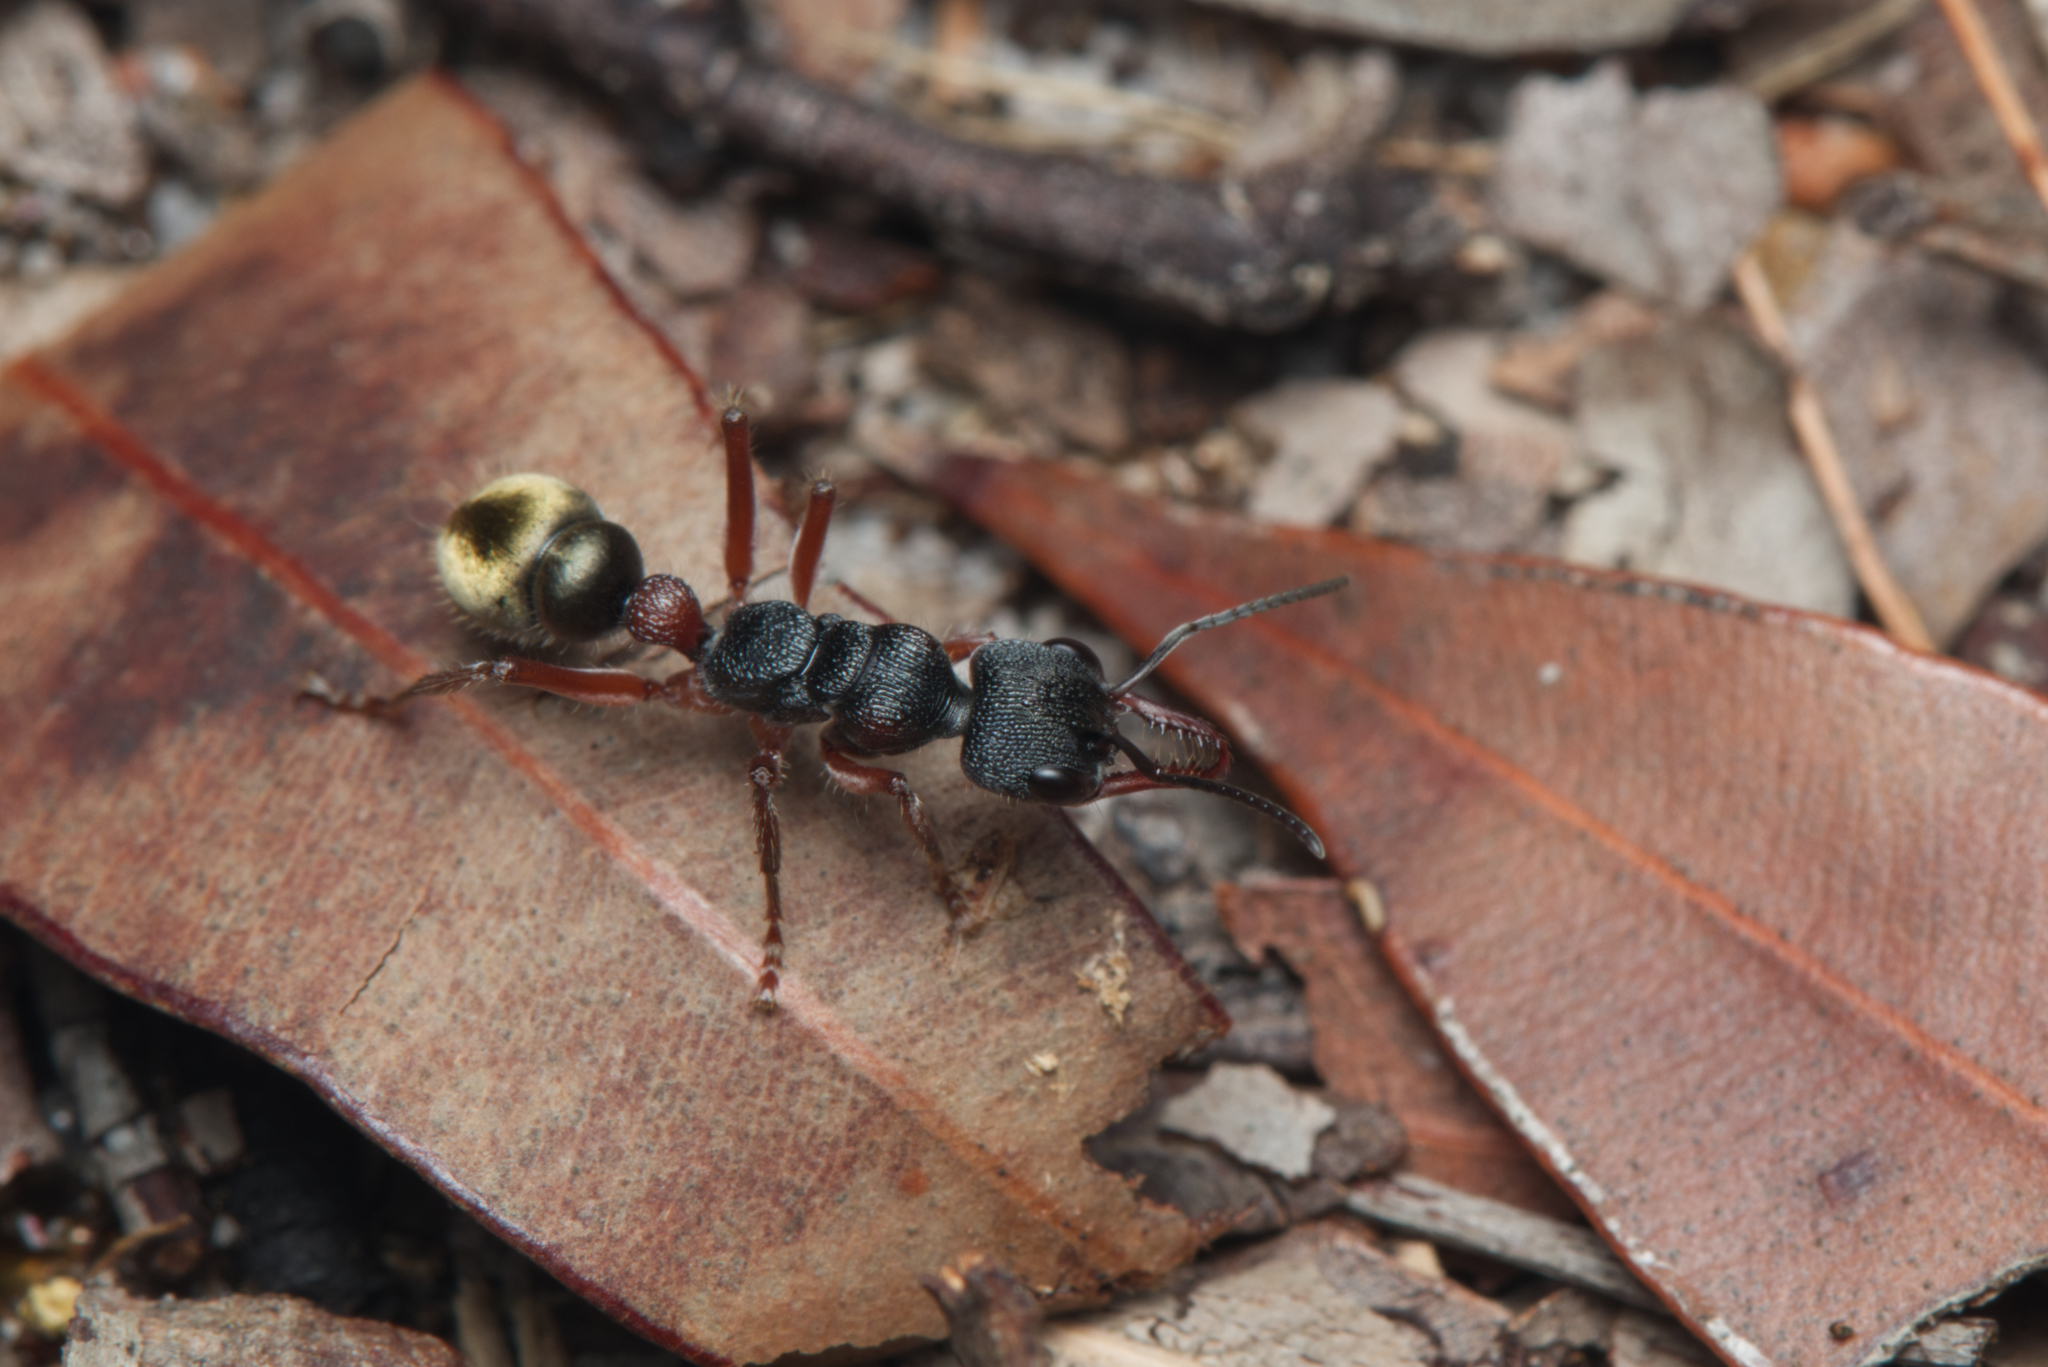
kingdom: Animalia
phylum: Arthropoda
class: Insecta
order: Hymenoptera
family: Formicidae
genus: Myrmecia
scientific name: Myrmecia chrysogaster
